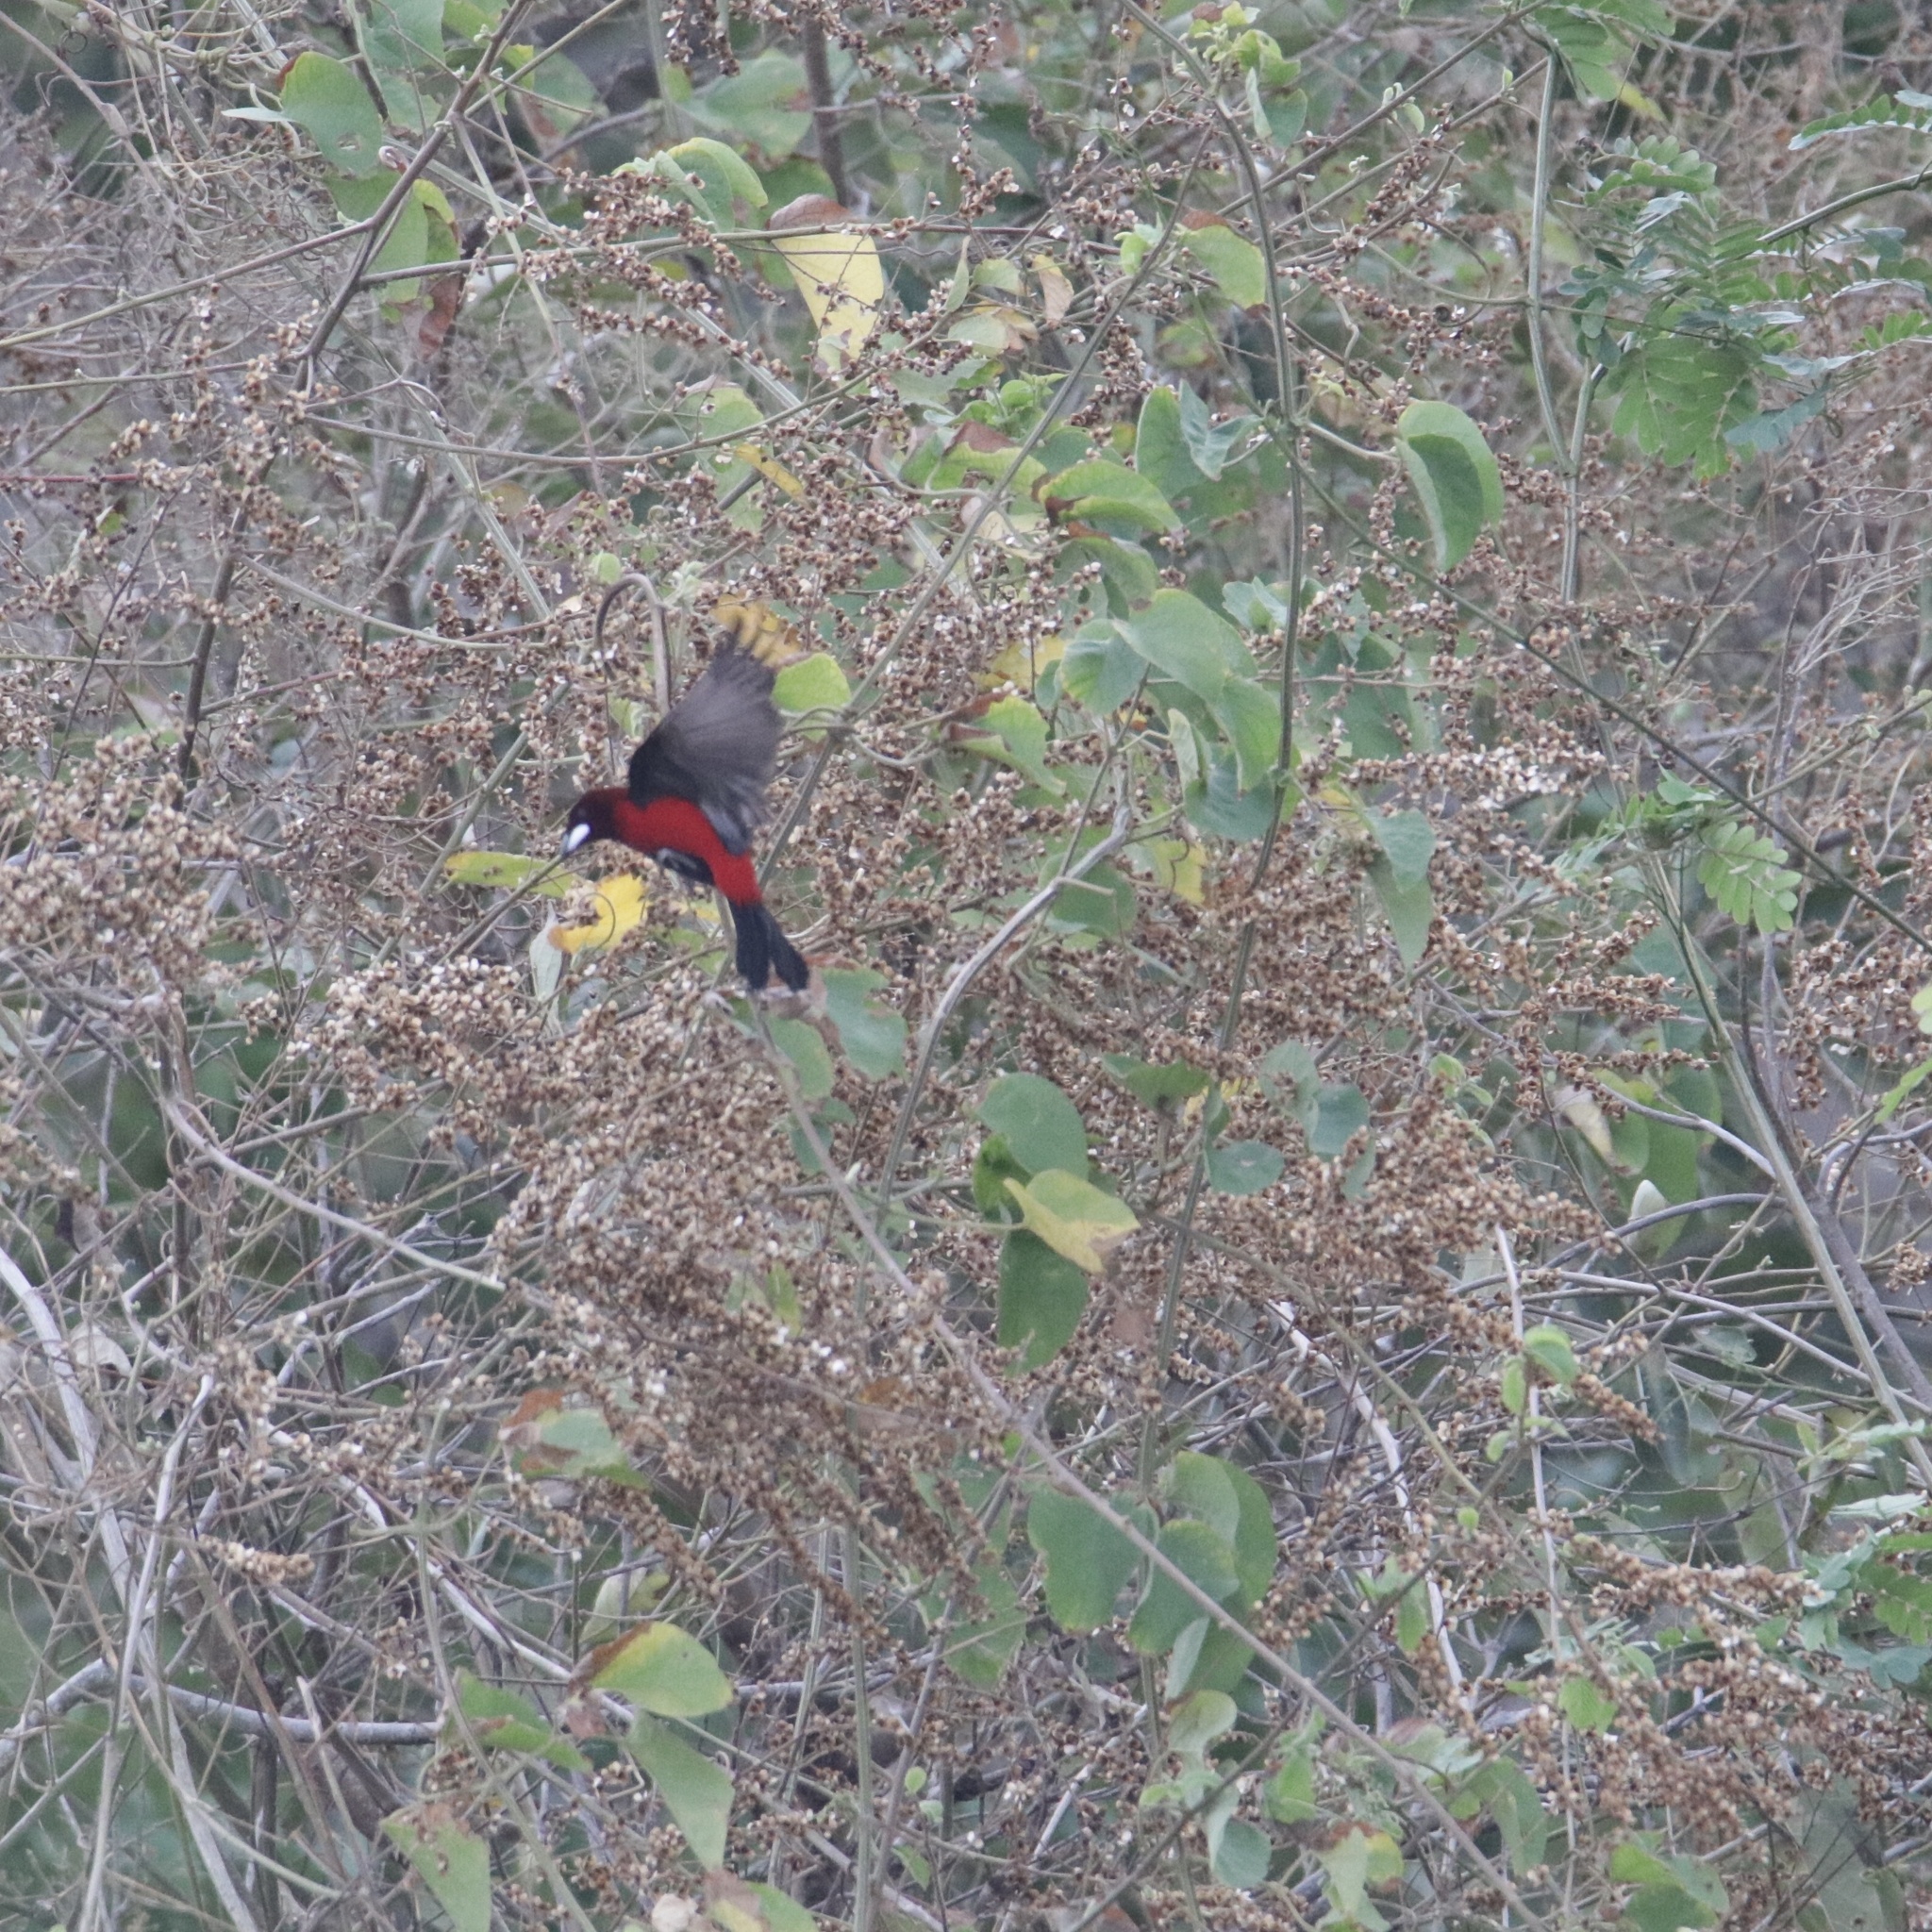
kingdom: Animalia
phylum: Chordata
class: Aves
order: Passeriformes
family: Thraupidae
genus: Ramphocelus
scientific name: Ramphocelus dimidiatus
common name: Crimson-backed tanager
